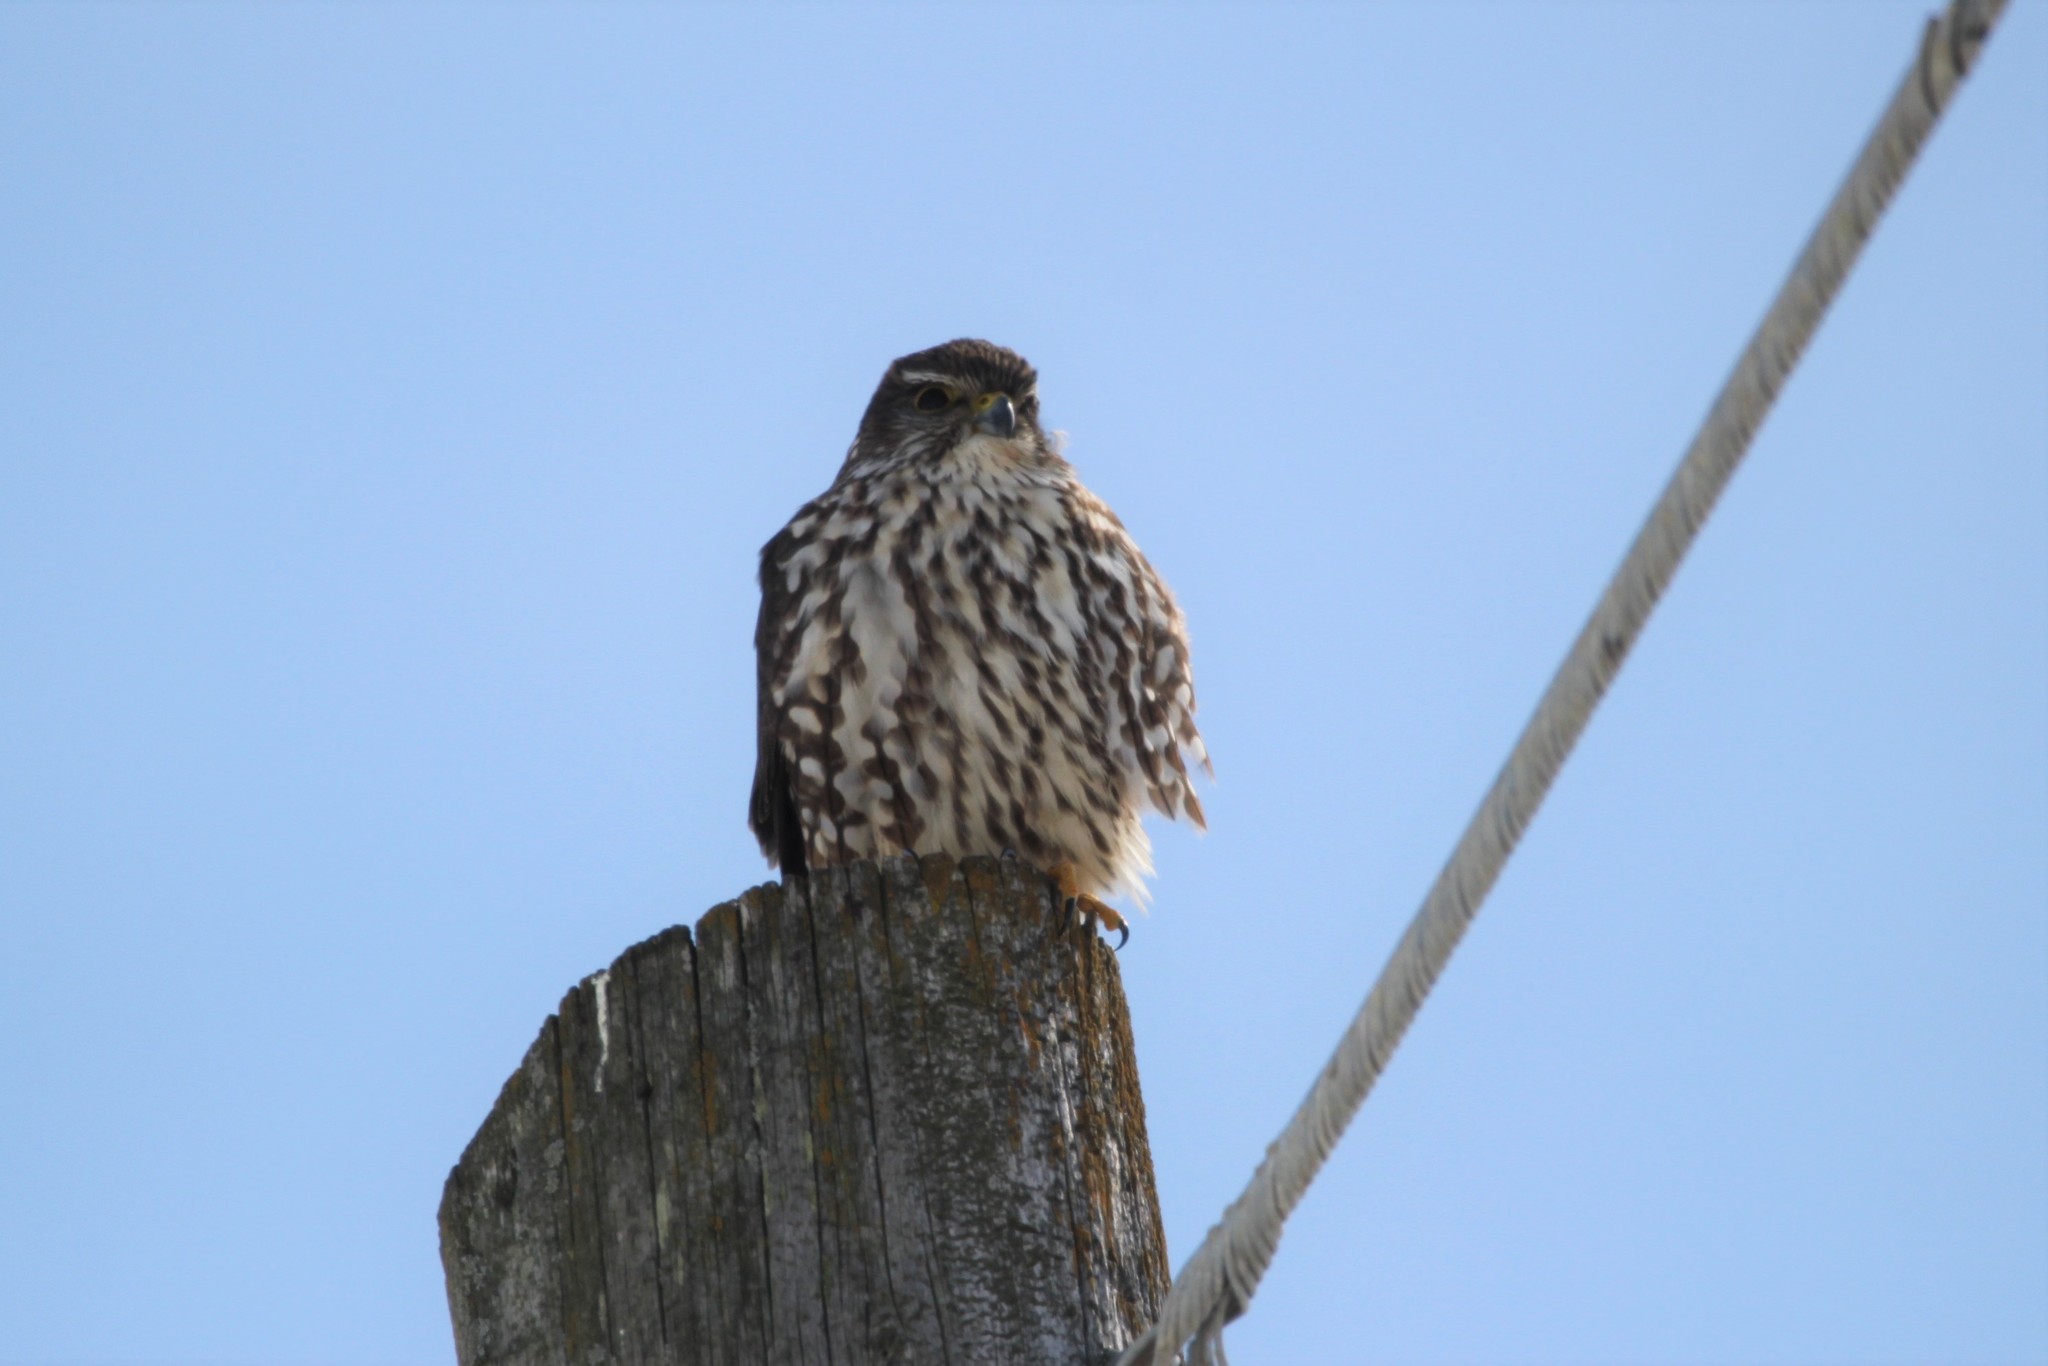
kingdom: Animalia
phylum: Chordata
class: Aves
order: Falconiformes
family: Falconidae
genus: Falco
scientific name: Falco columbarius
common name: Merlin
